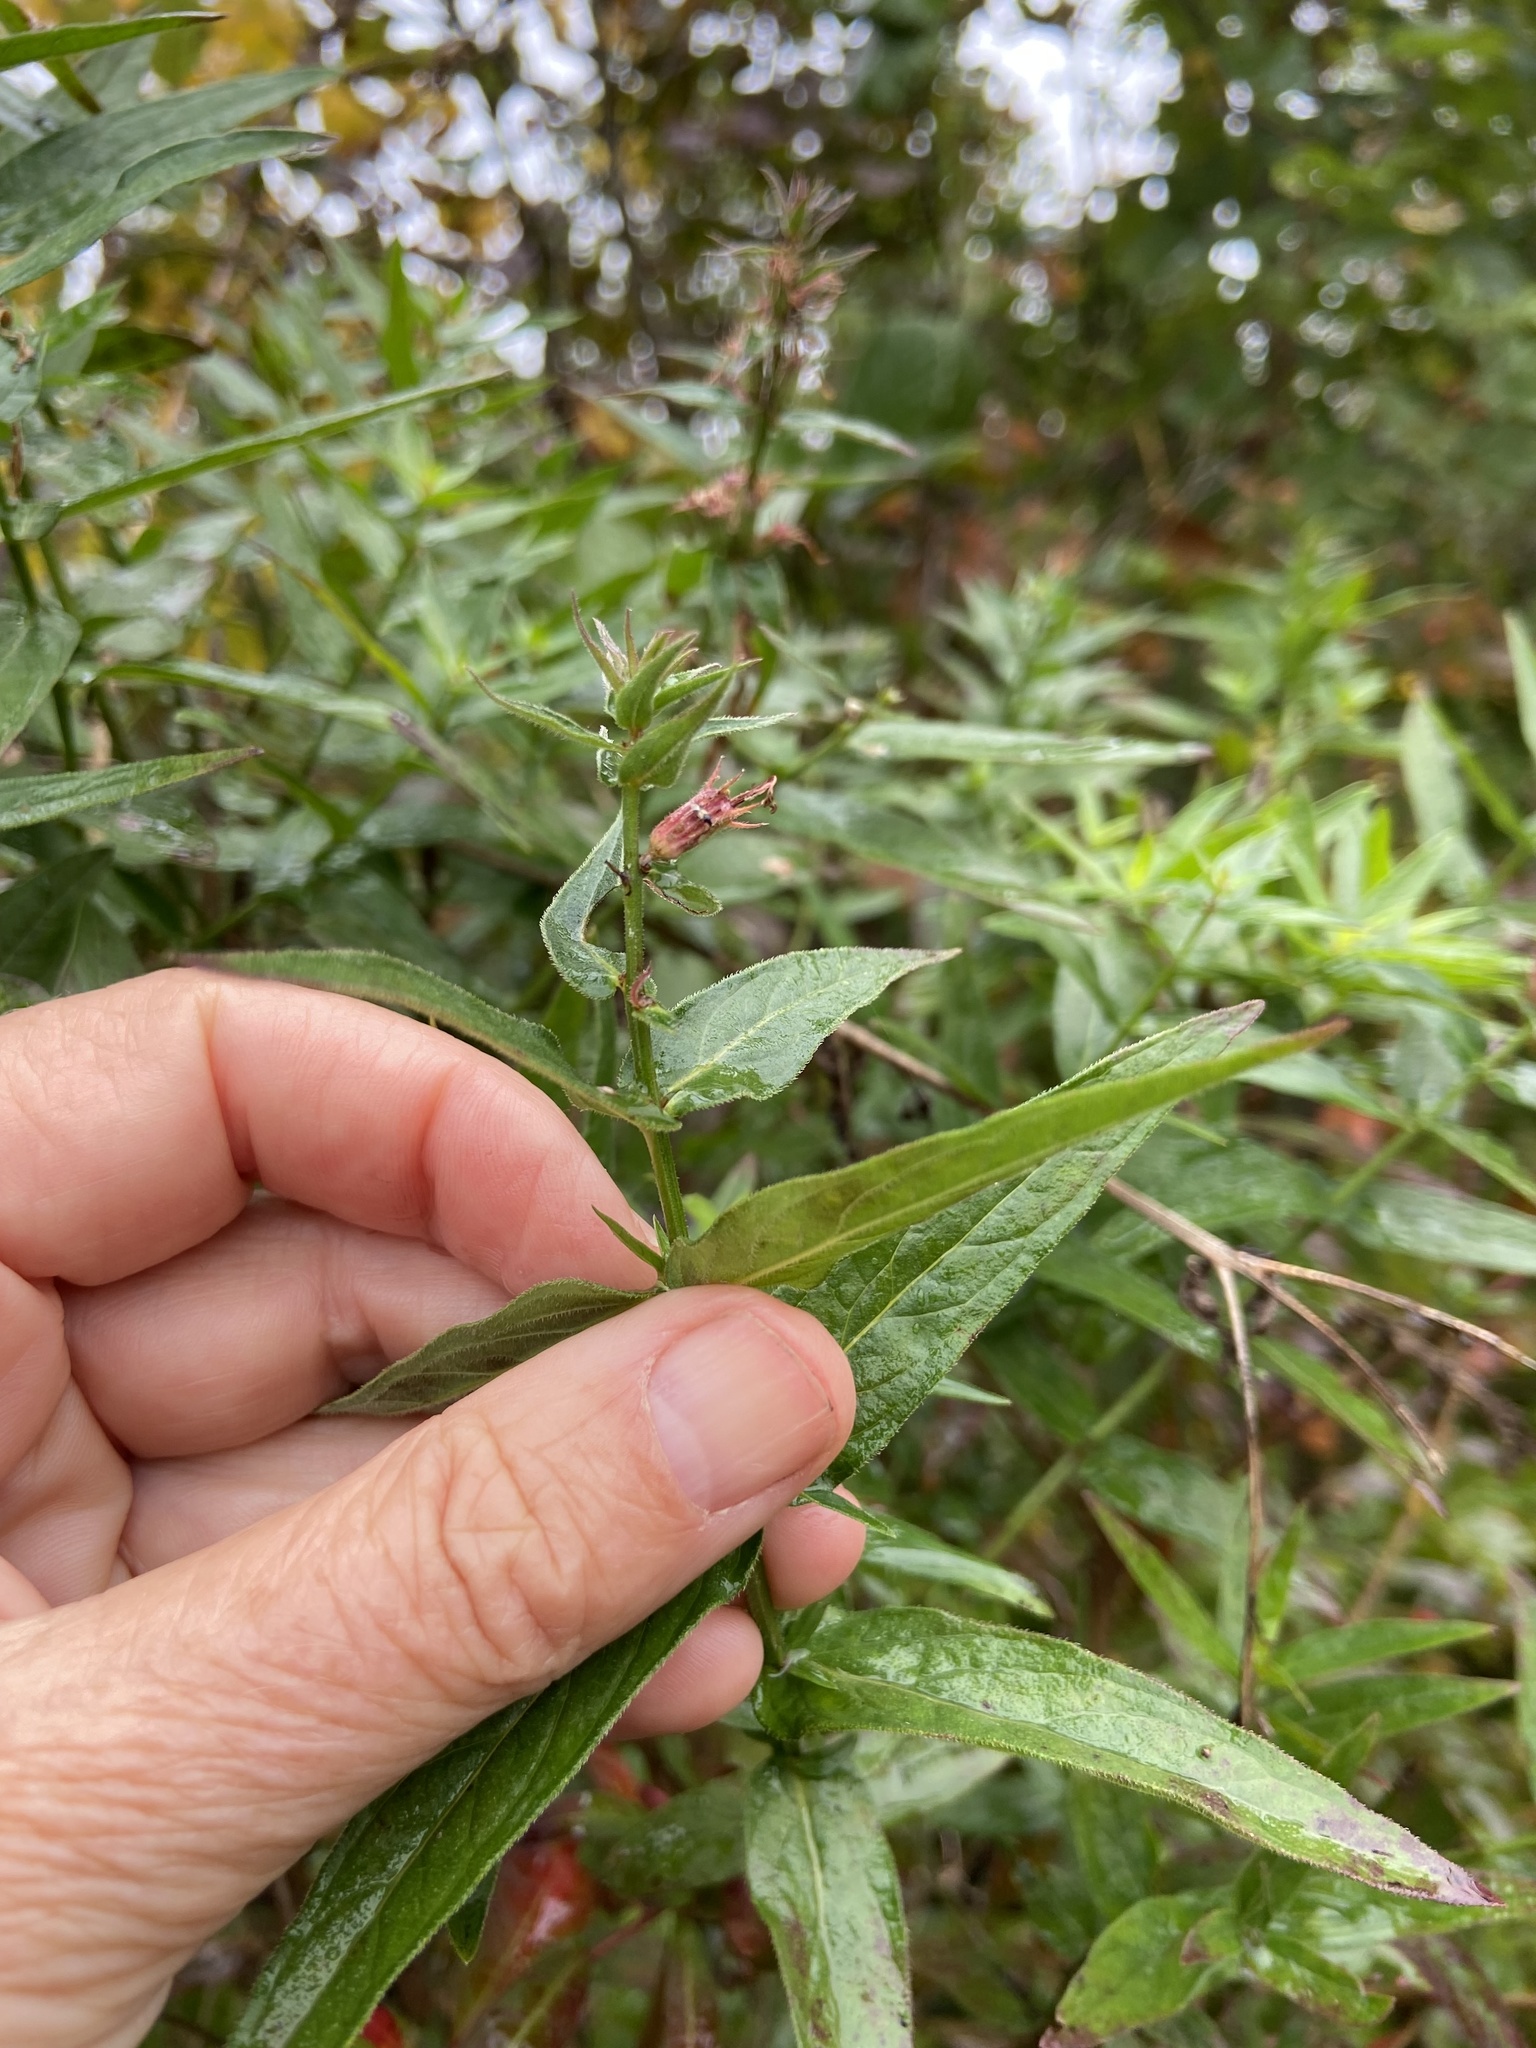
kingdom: Plantae
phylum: Tracheophyta
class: Magnoliopsida
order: Rosales
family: Rosaceae
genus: Spiraea
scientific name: Spiraea alba
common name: Pale bridewort
